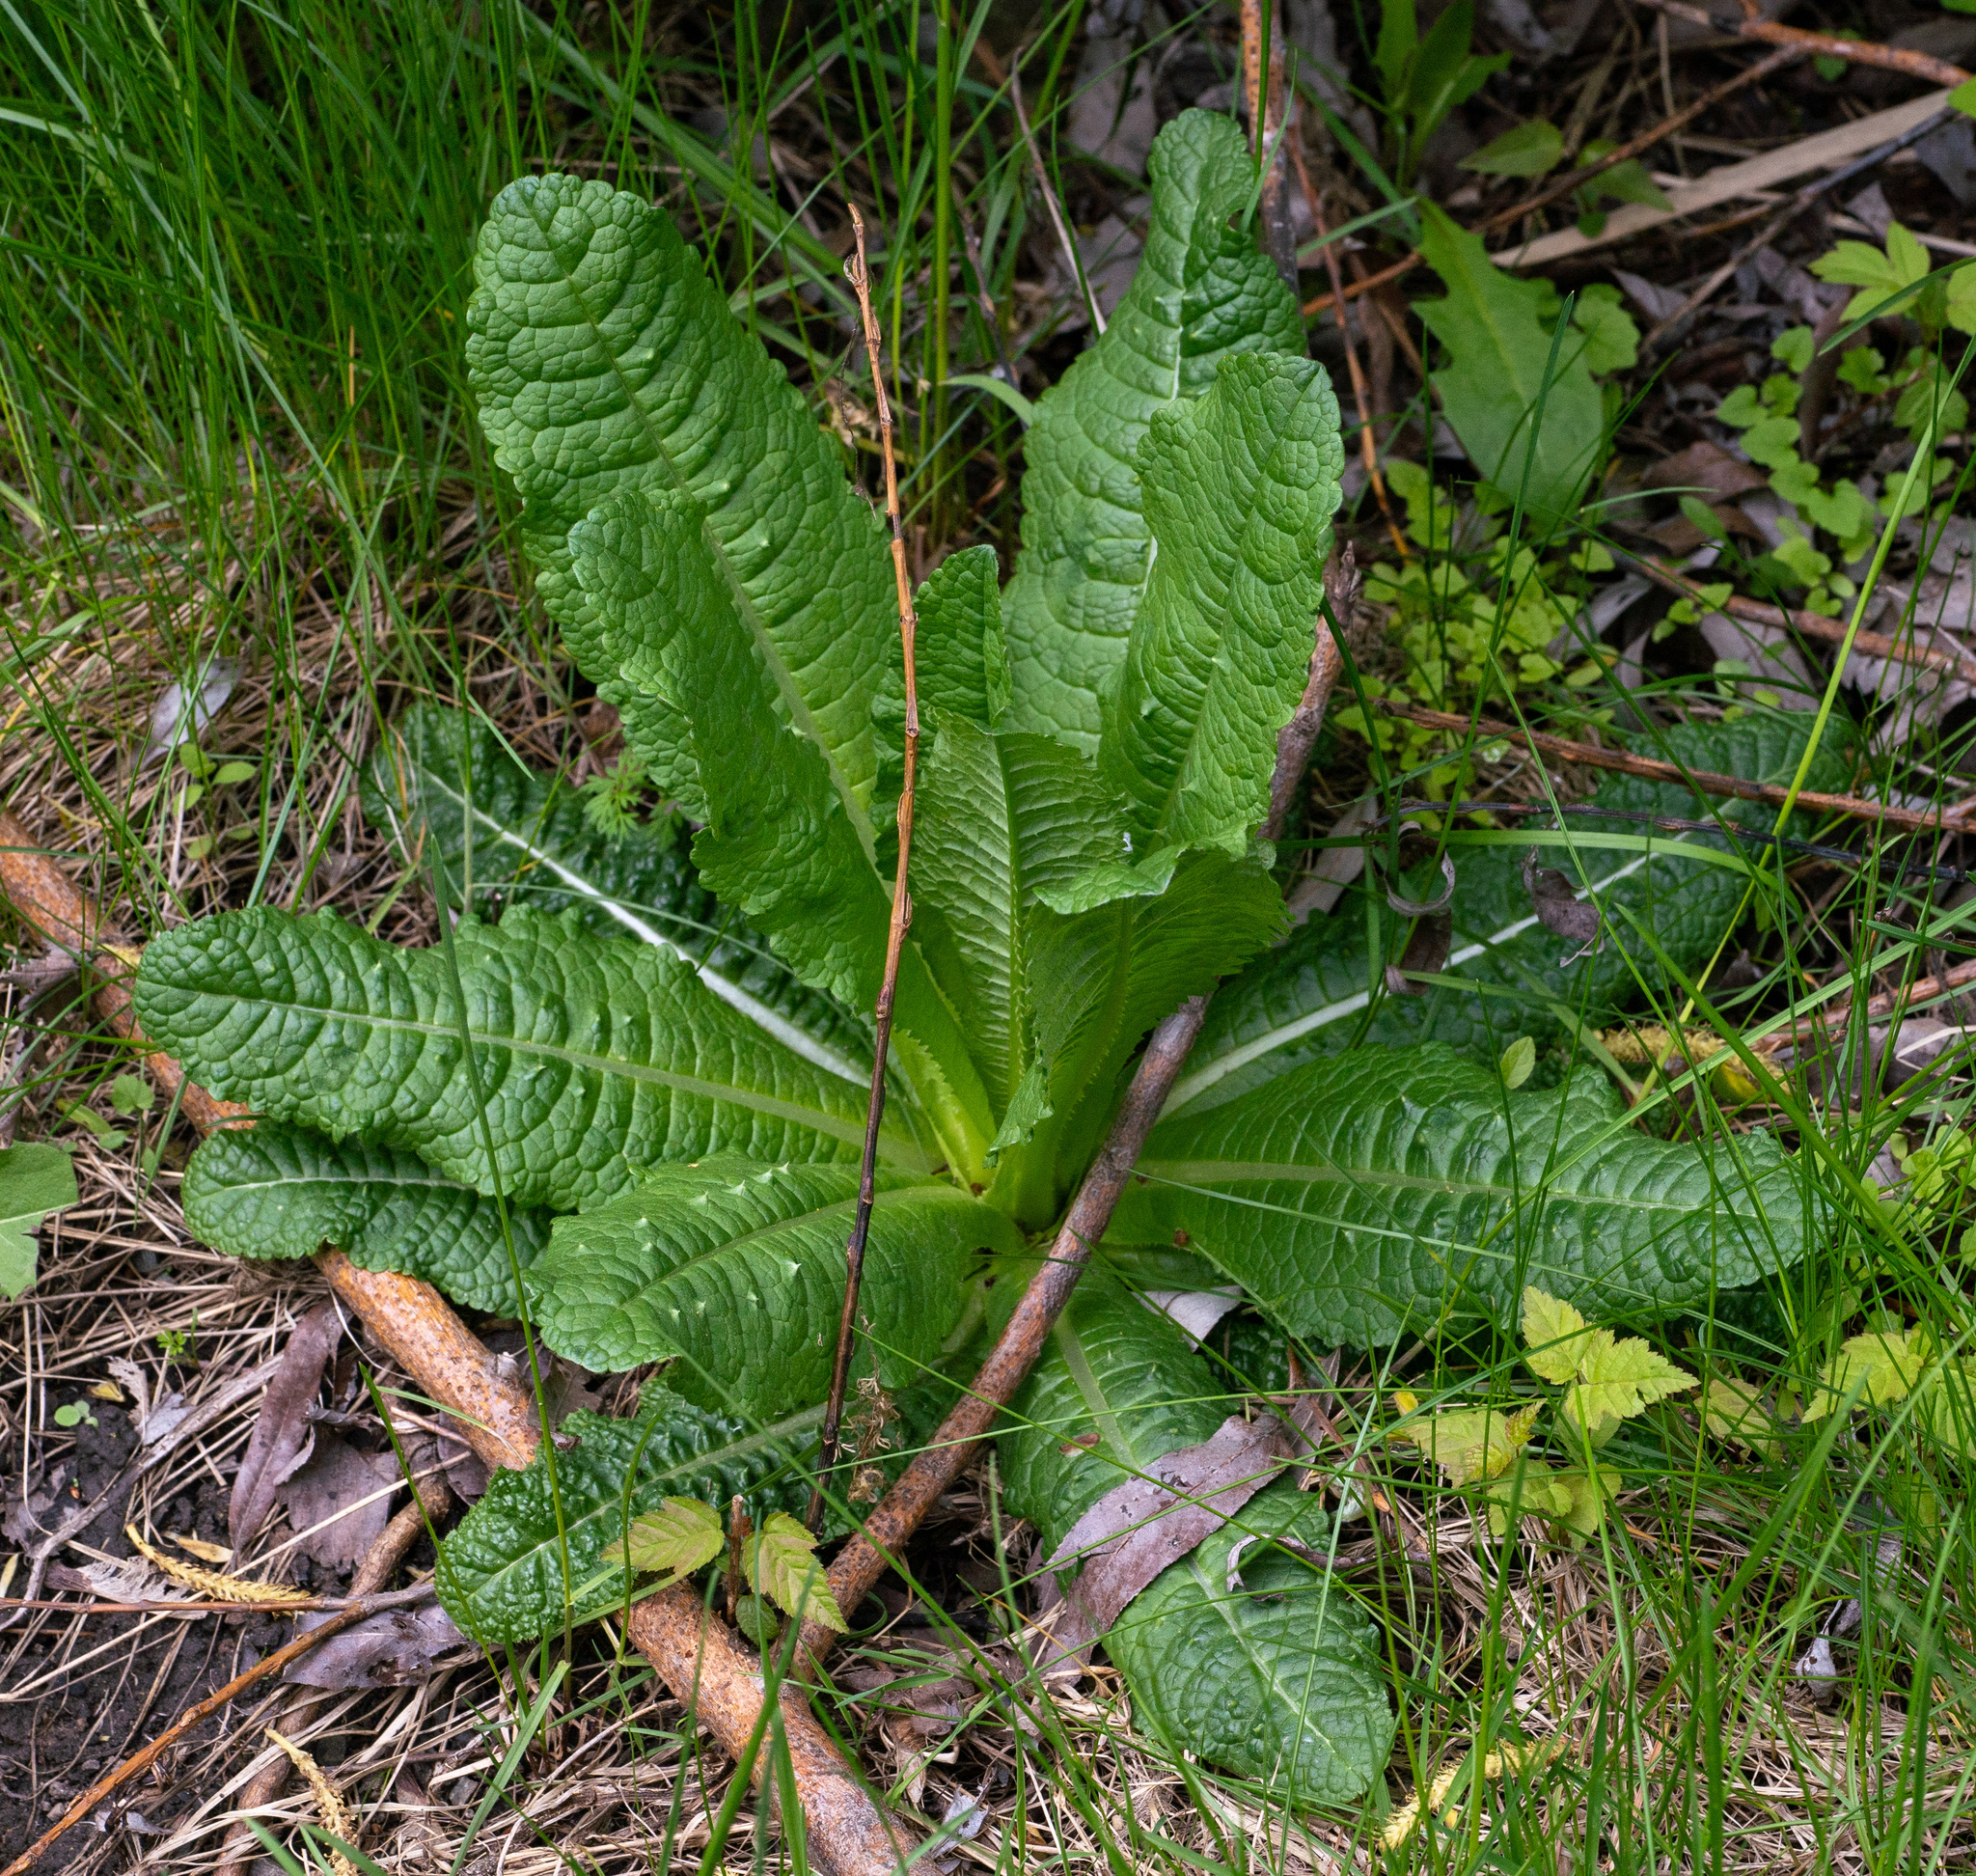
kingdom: Plantae
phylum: Tracheophyta
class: Magnoliopsida
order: Dipsacales
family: Caprifoliaceae
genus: Dipsacus
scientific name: Dipsacus fullonum
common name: Teasel
